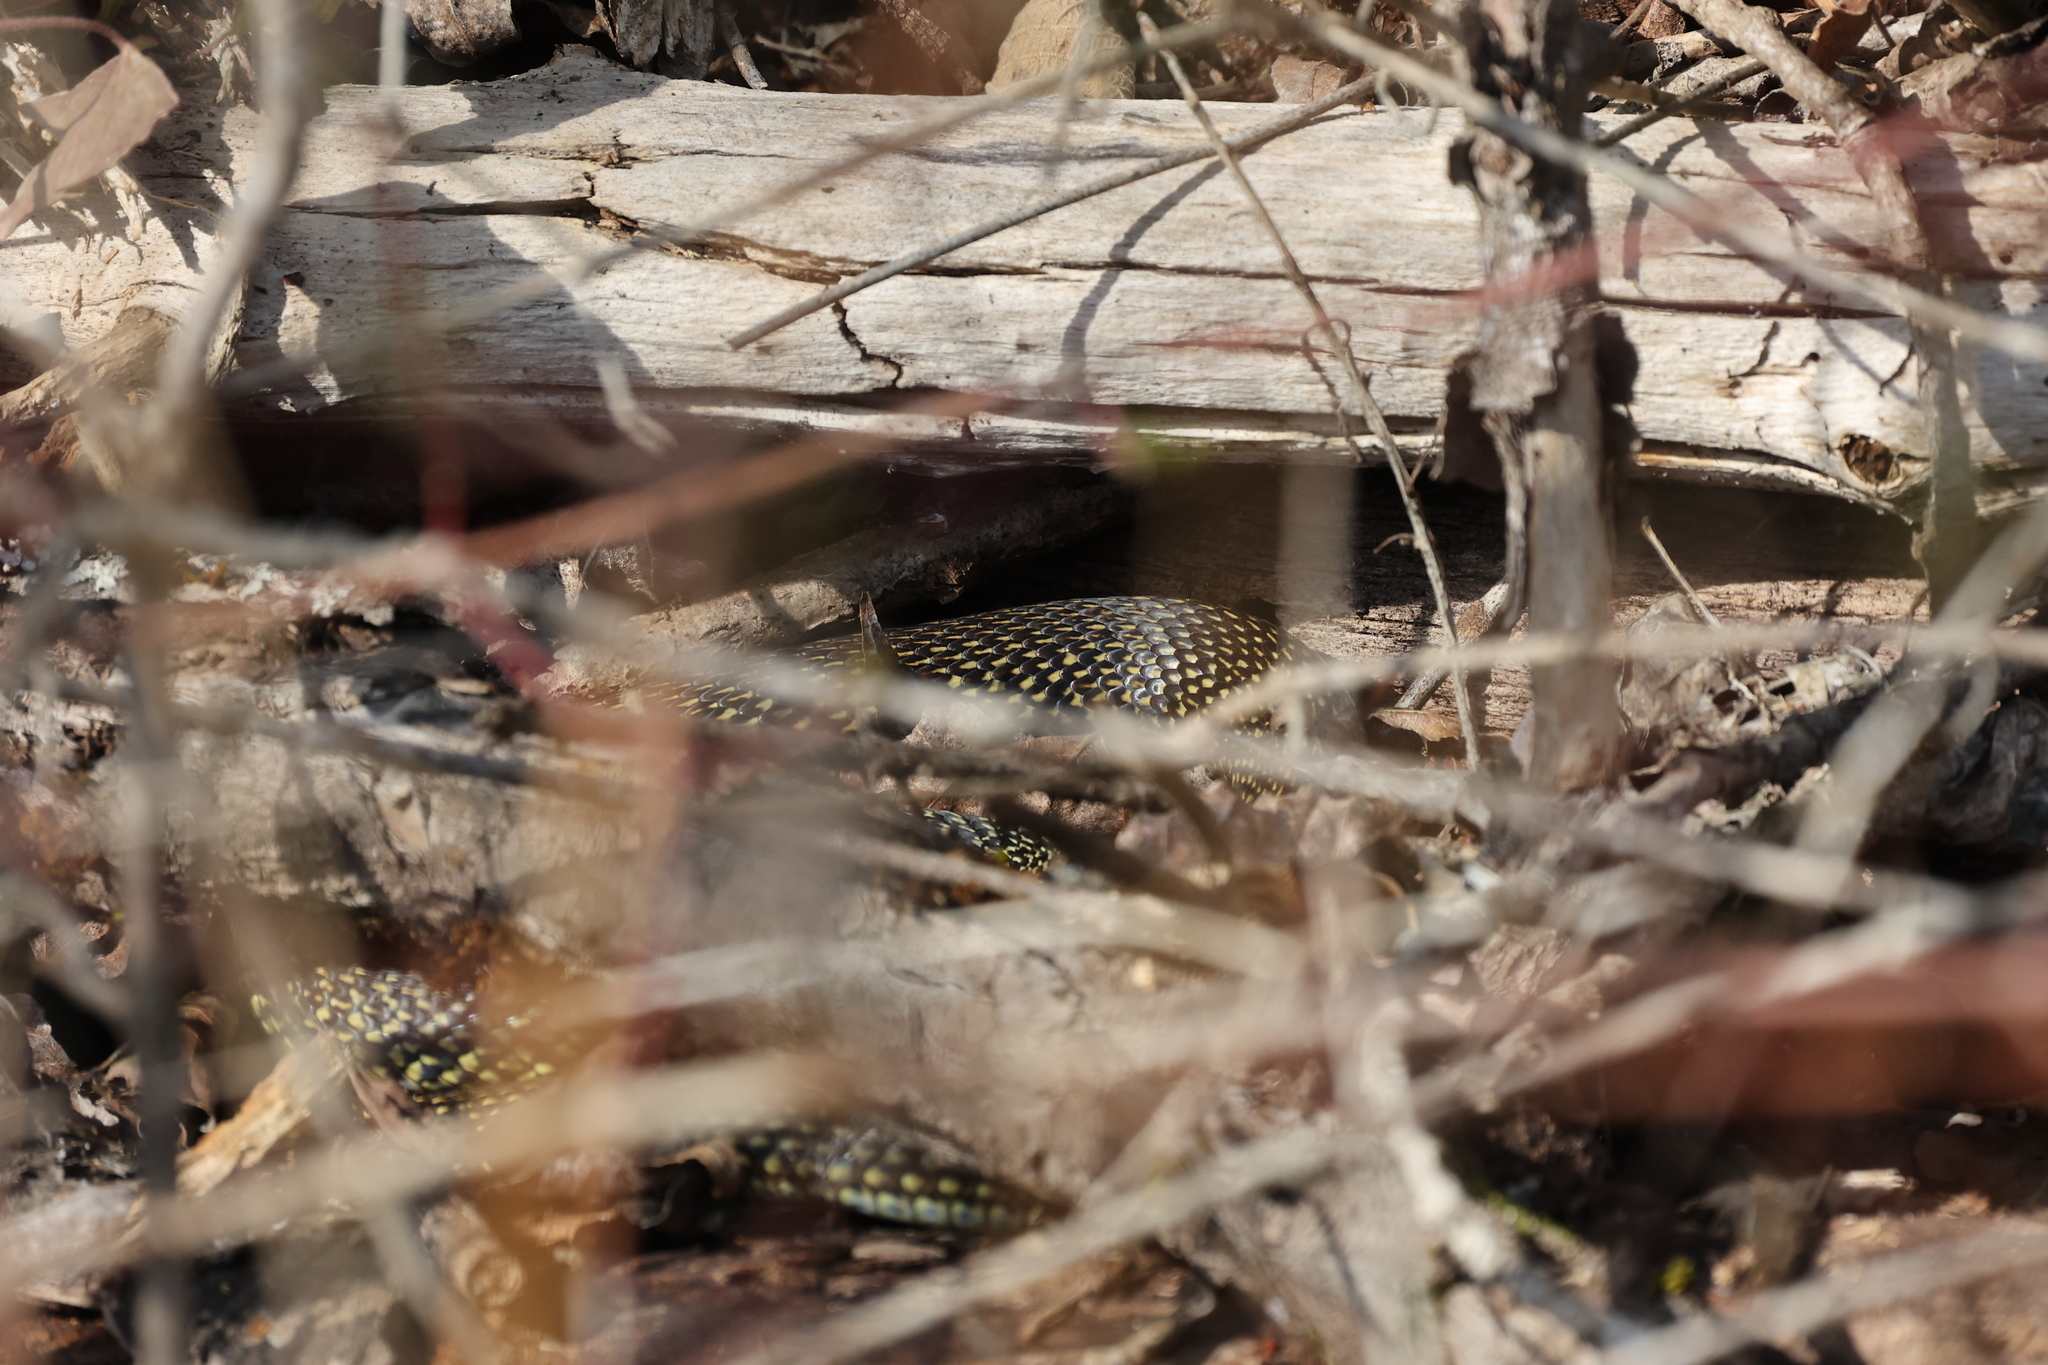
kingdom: Animalia
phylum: Chordata
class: Squamata
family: Colubridae
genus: Hierophis
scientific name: Hierophis viridiflavus
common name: Green whip snake
